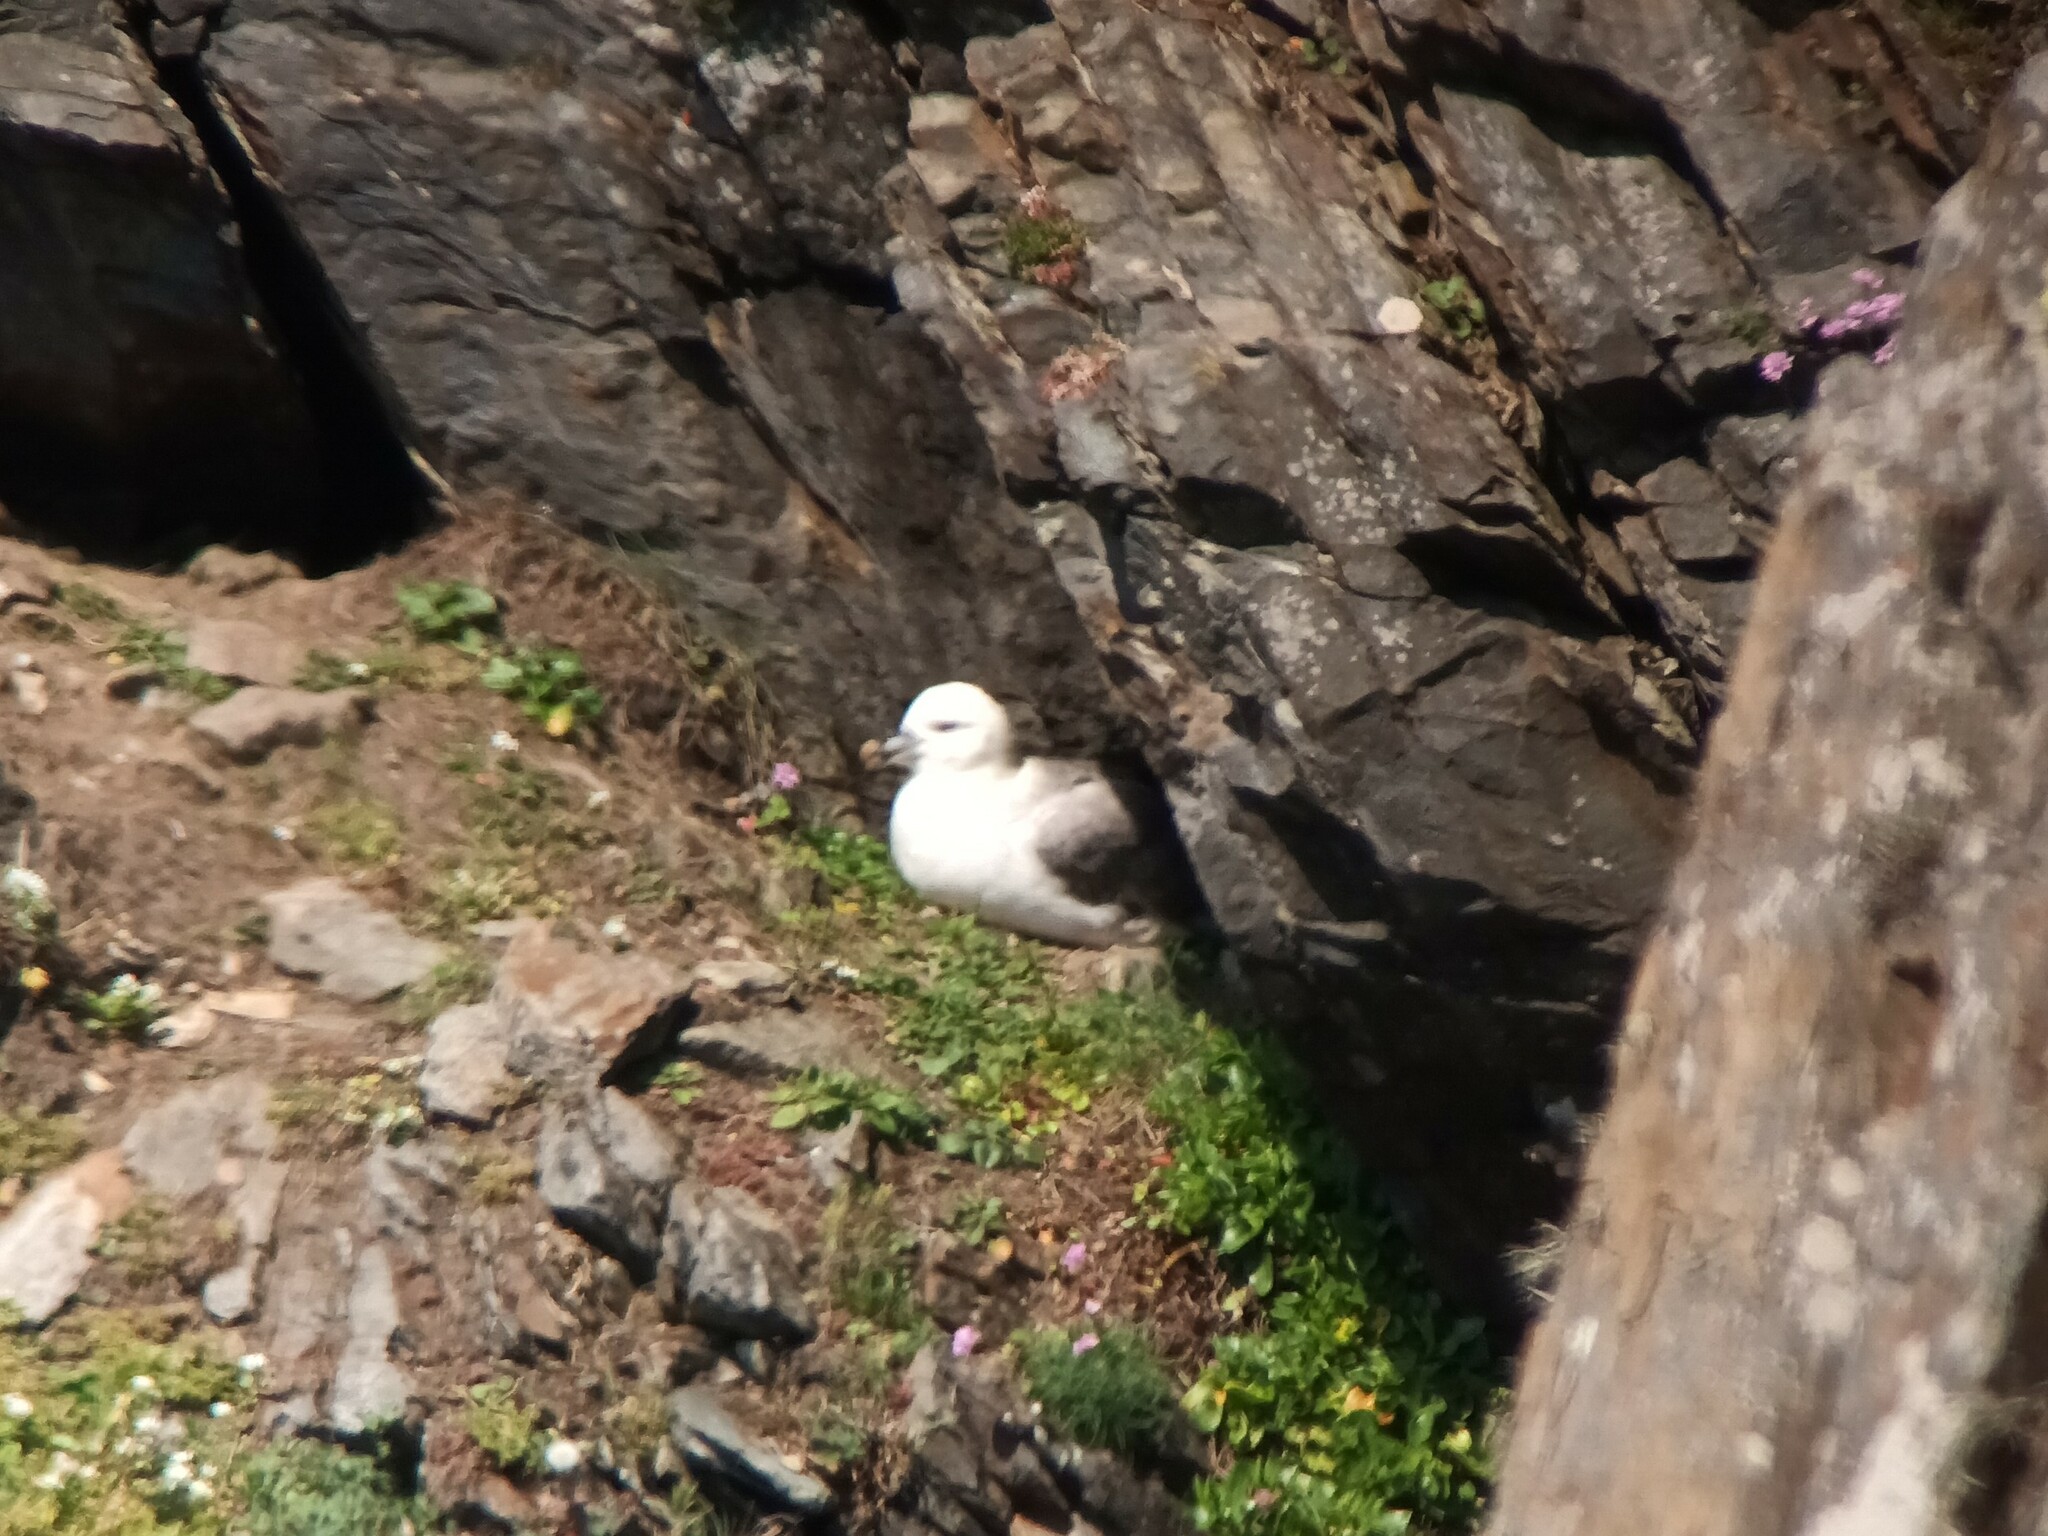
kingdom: Animalia
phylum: Chordata
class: Aves
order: Procellariiformes
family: Procellariidae
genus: Fulmarus
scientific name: Fulmarus glacialis
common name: Northern fulmar
